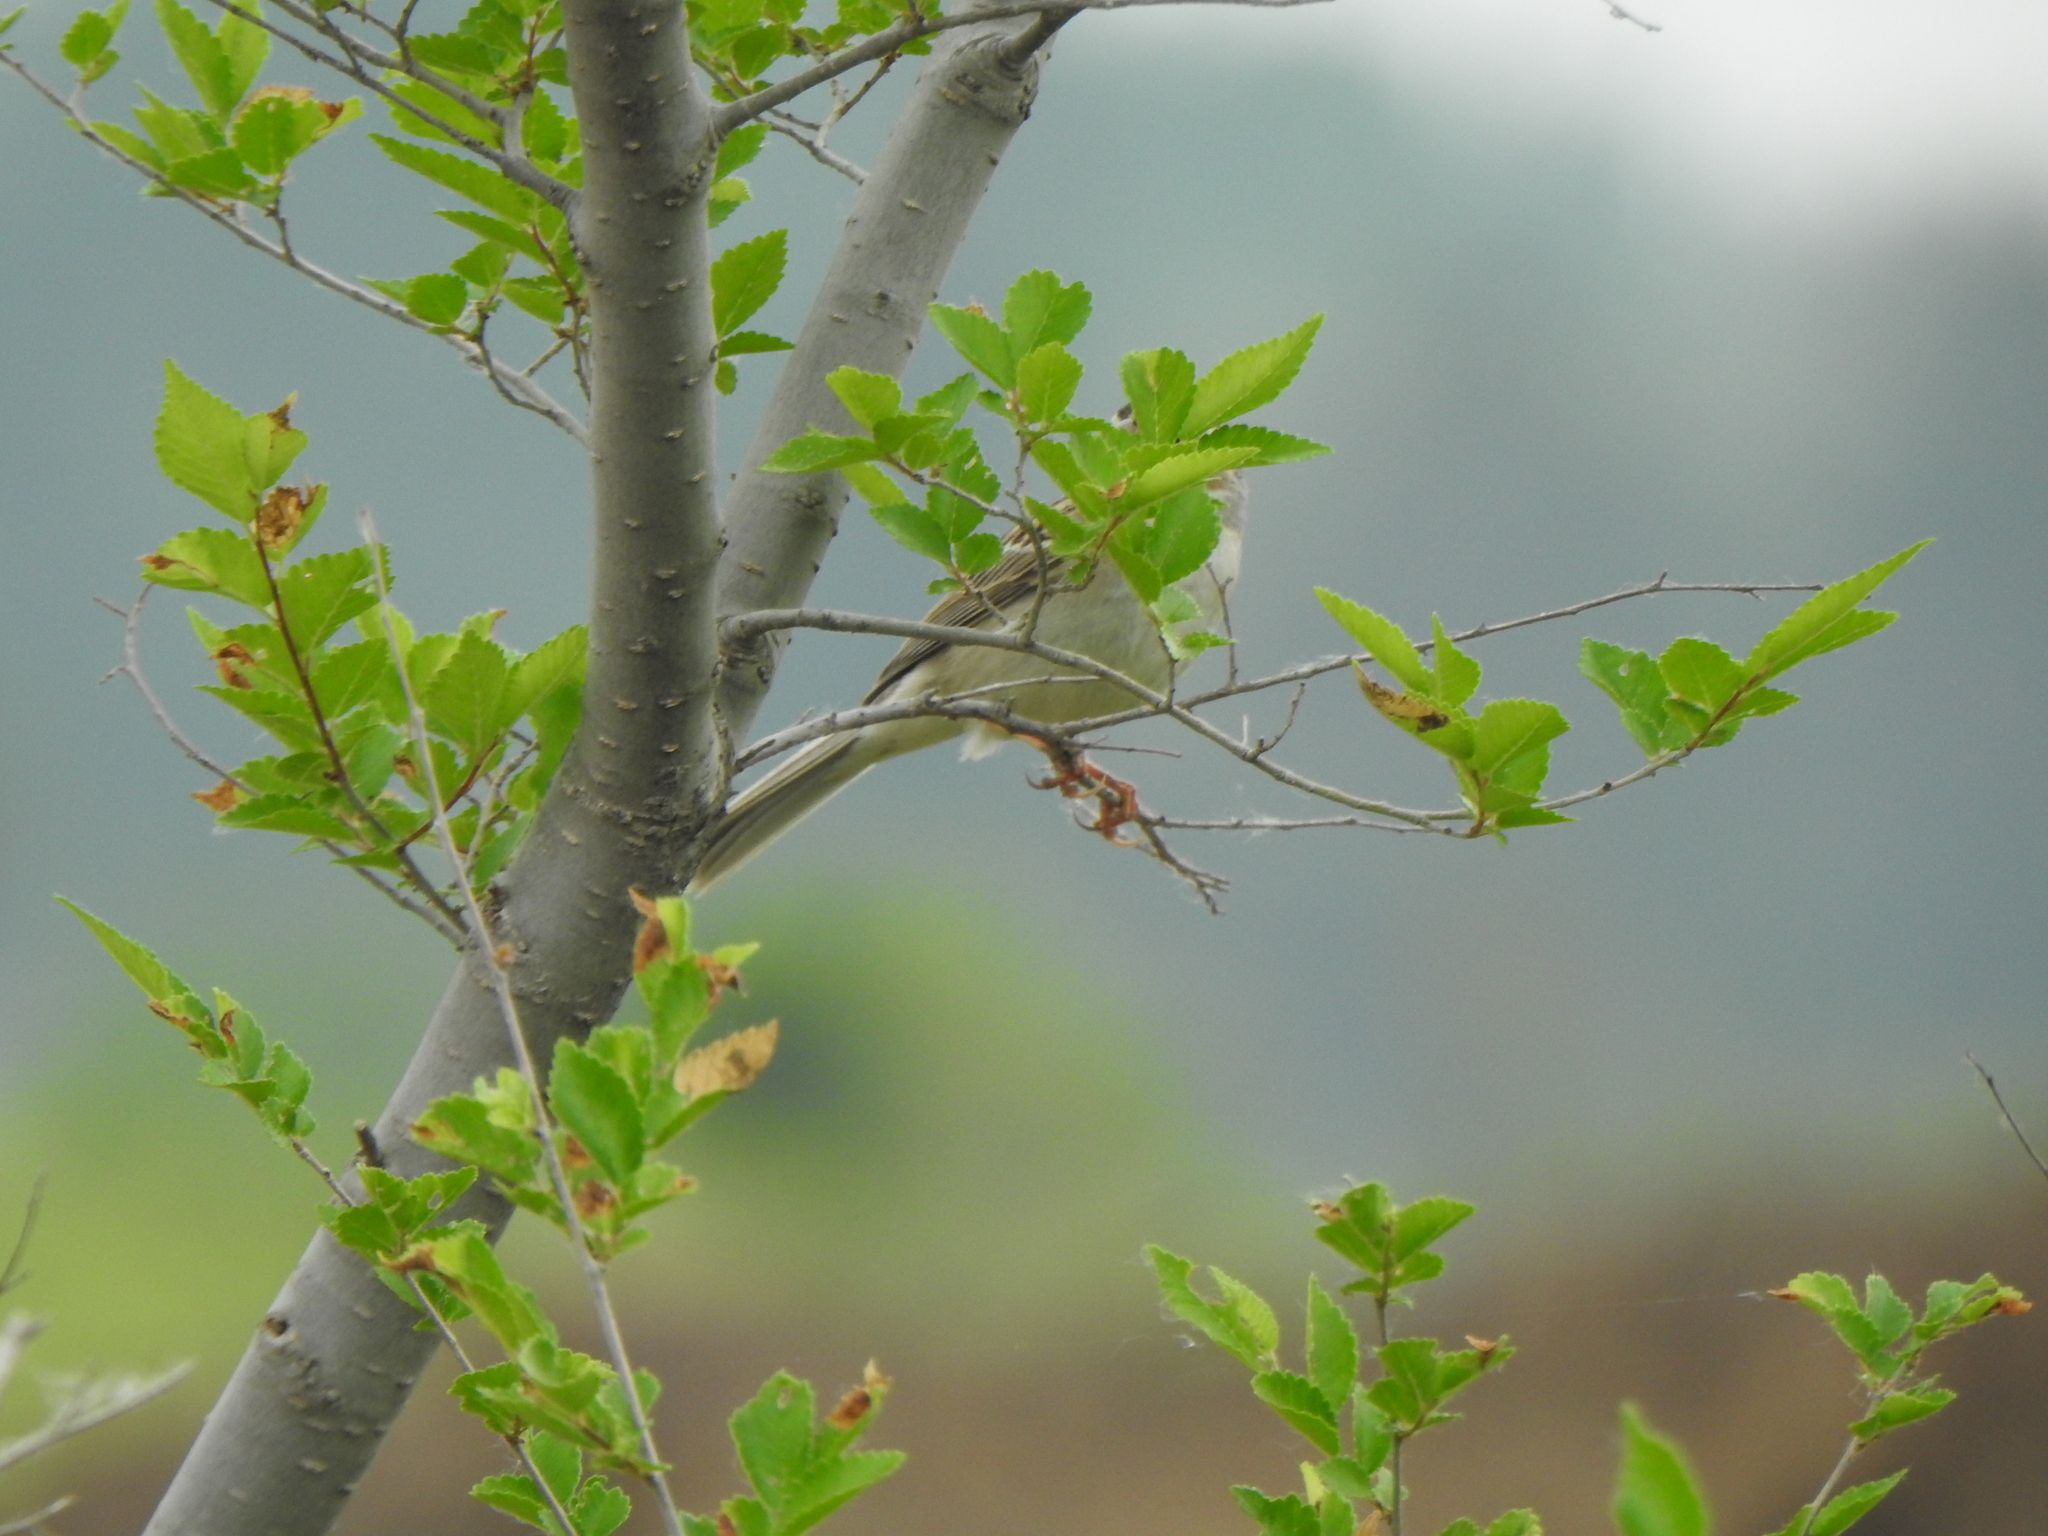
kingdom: Animalia
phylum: Chordata
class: Aves
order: Passeriformes
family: Passerellidae
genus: Spizella
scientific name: Spizella pallida
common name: Clay-colored sparrow
